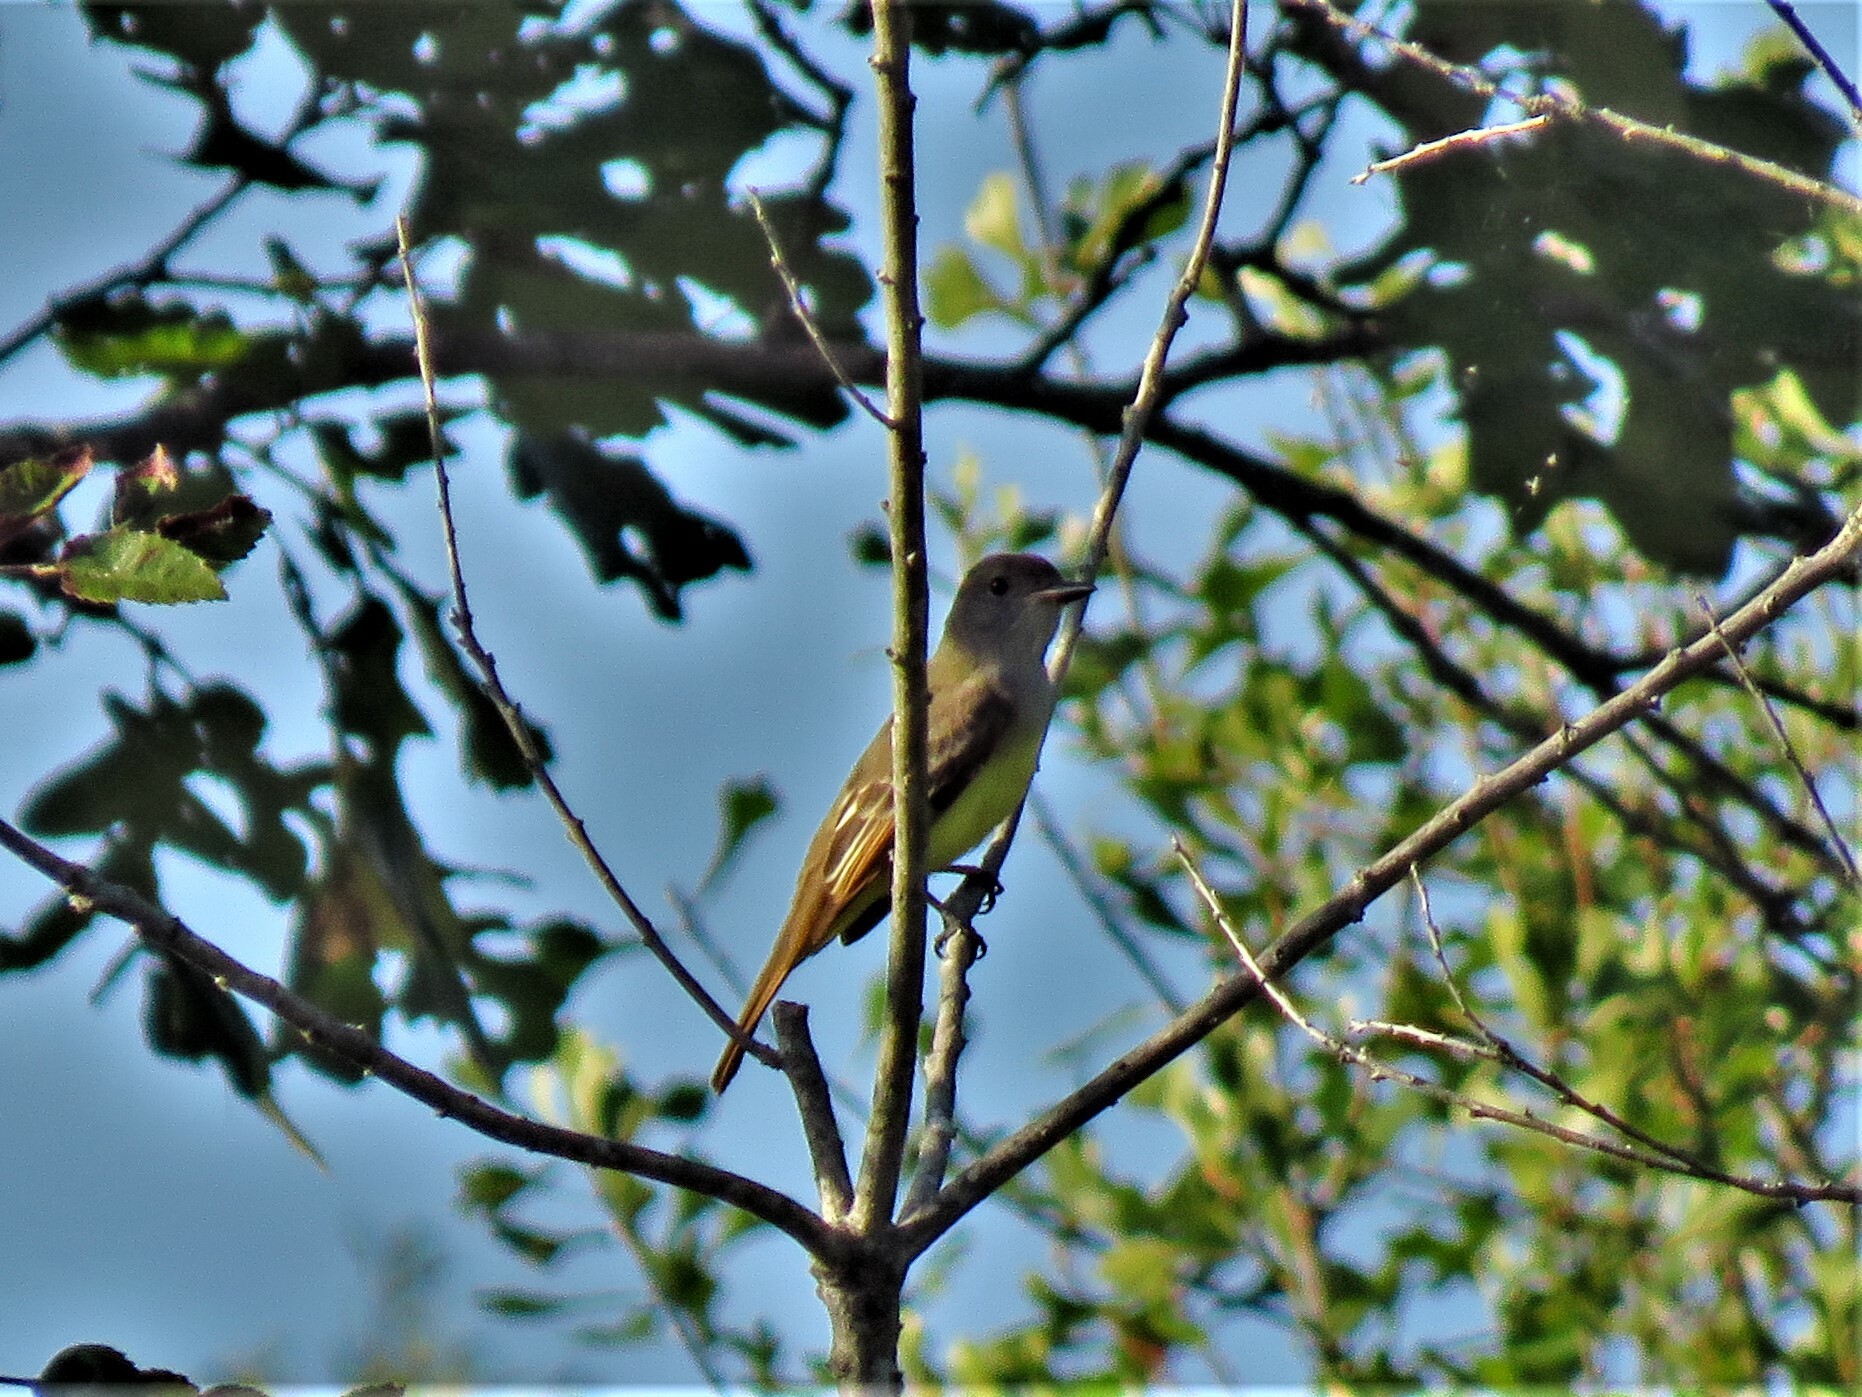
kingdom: Animalia
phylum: Chordata
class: Aves
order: Passeriformes
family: Tyrannidae
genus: Myiarchus
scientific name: Myiarchus crinitus
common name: Great crested flycatcher
